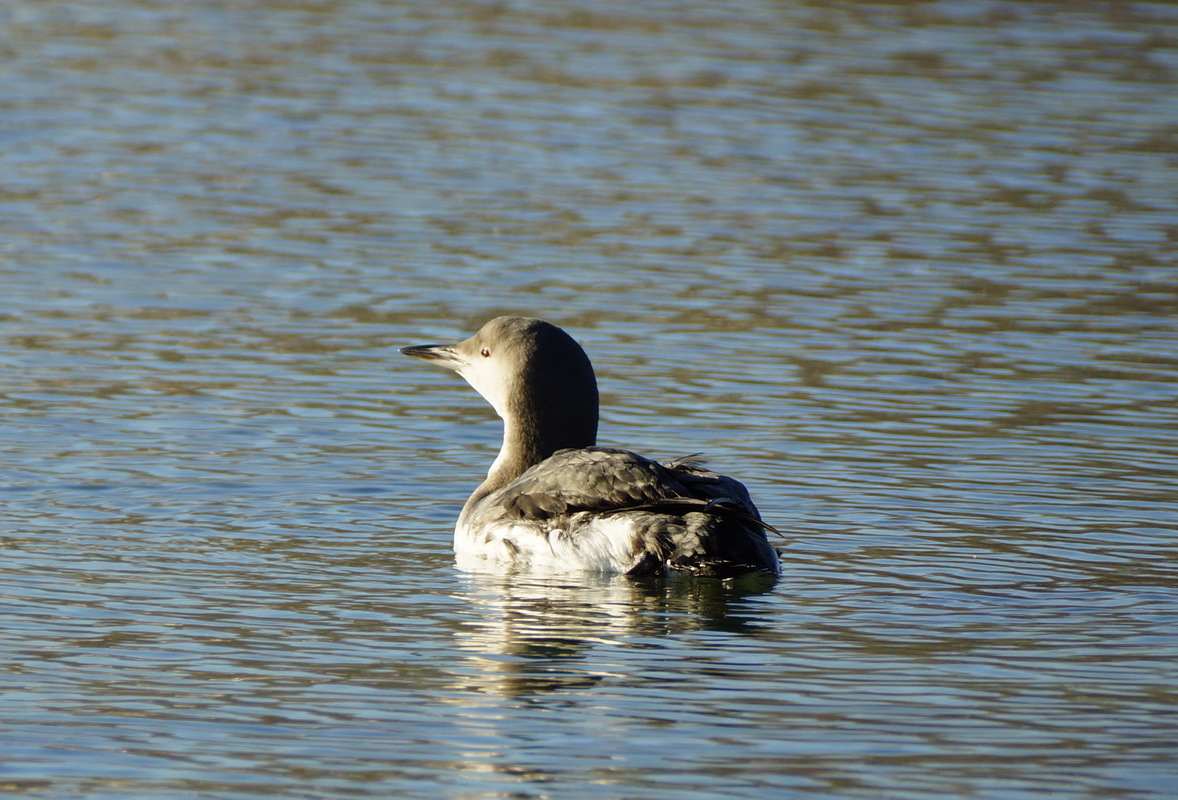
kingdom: Animalia
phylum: Chordata
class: Aves
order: Gaviiformes
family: Gaviidae
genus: Gavia
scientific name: Gavia arctica
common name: Black-throated loon
